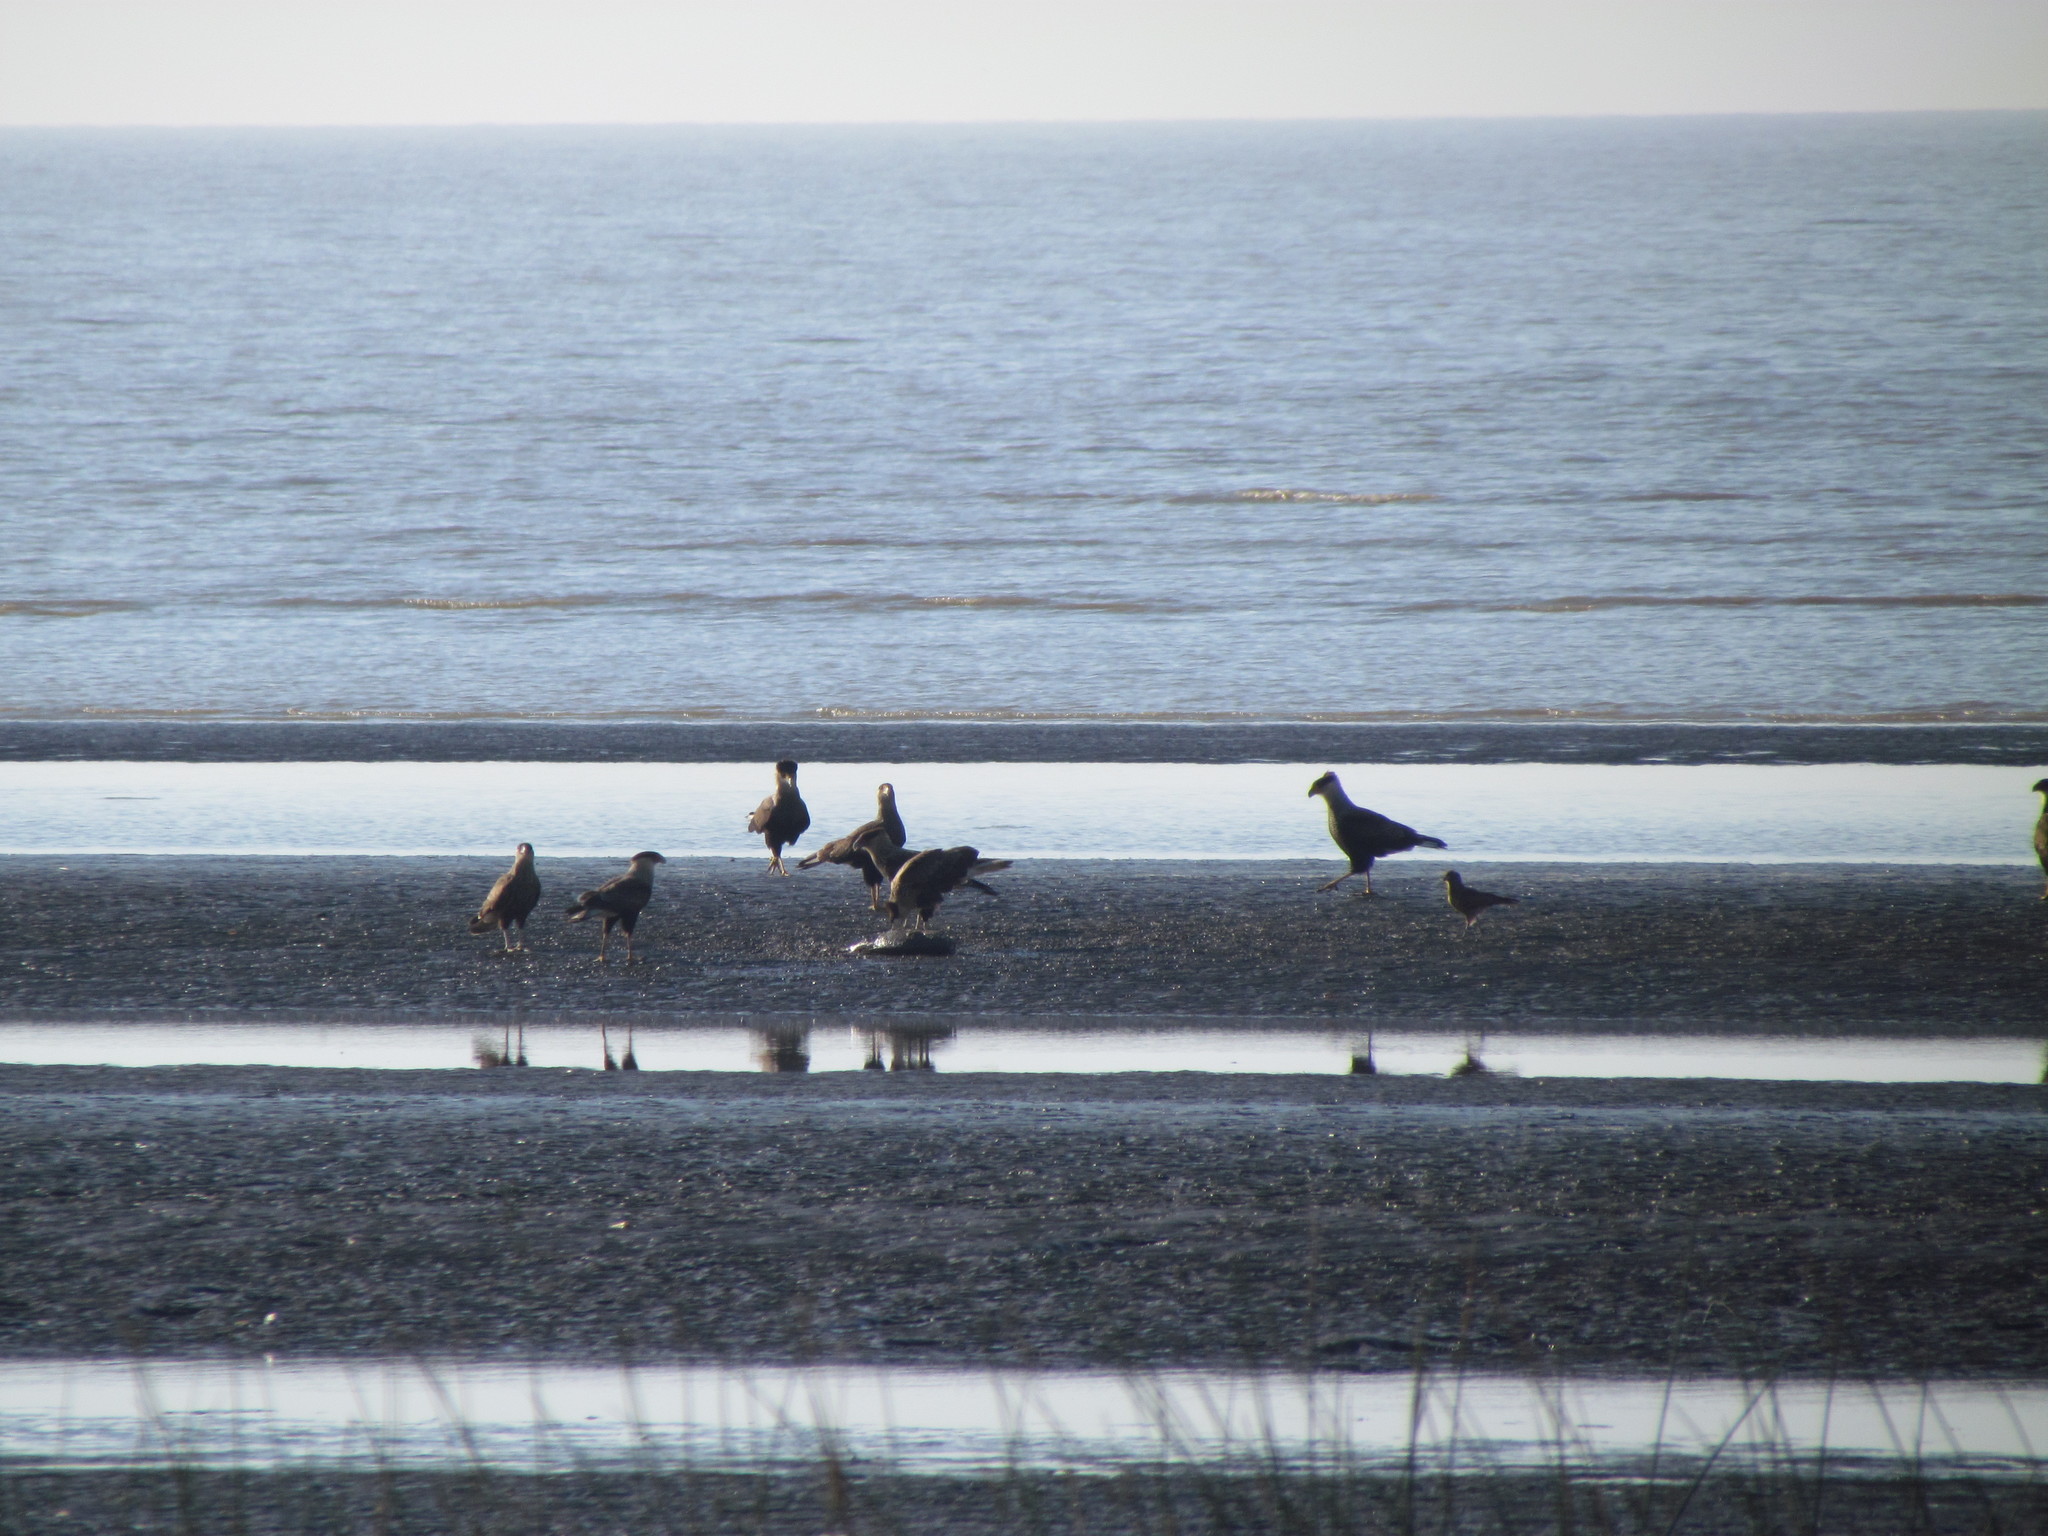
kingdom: Animalia
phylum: Chordata
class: Aves
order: Falconiformes
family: Falconidae
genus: Caracara
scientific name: Caracara plancus
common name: Southern caracara
